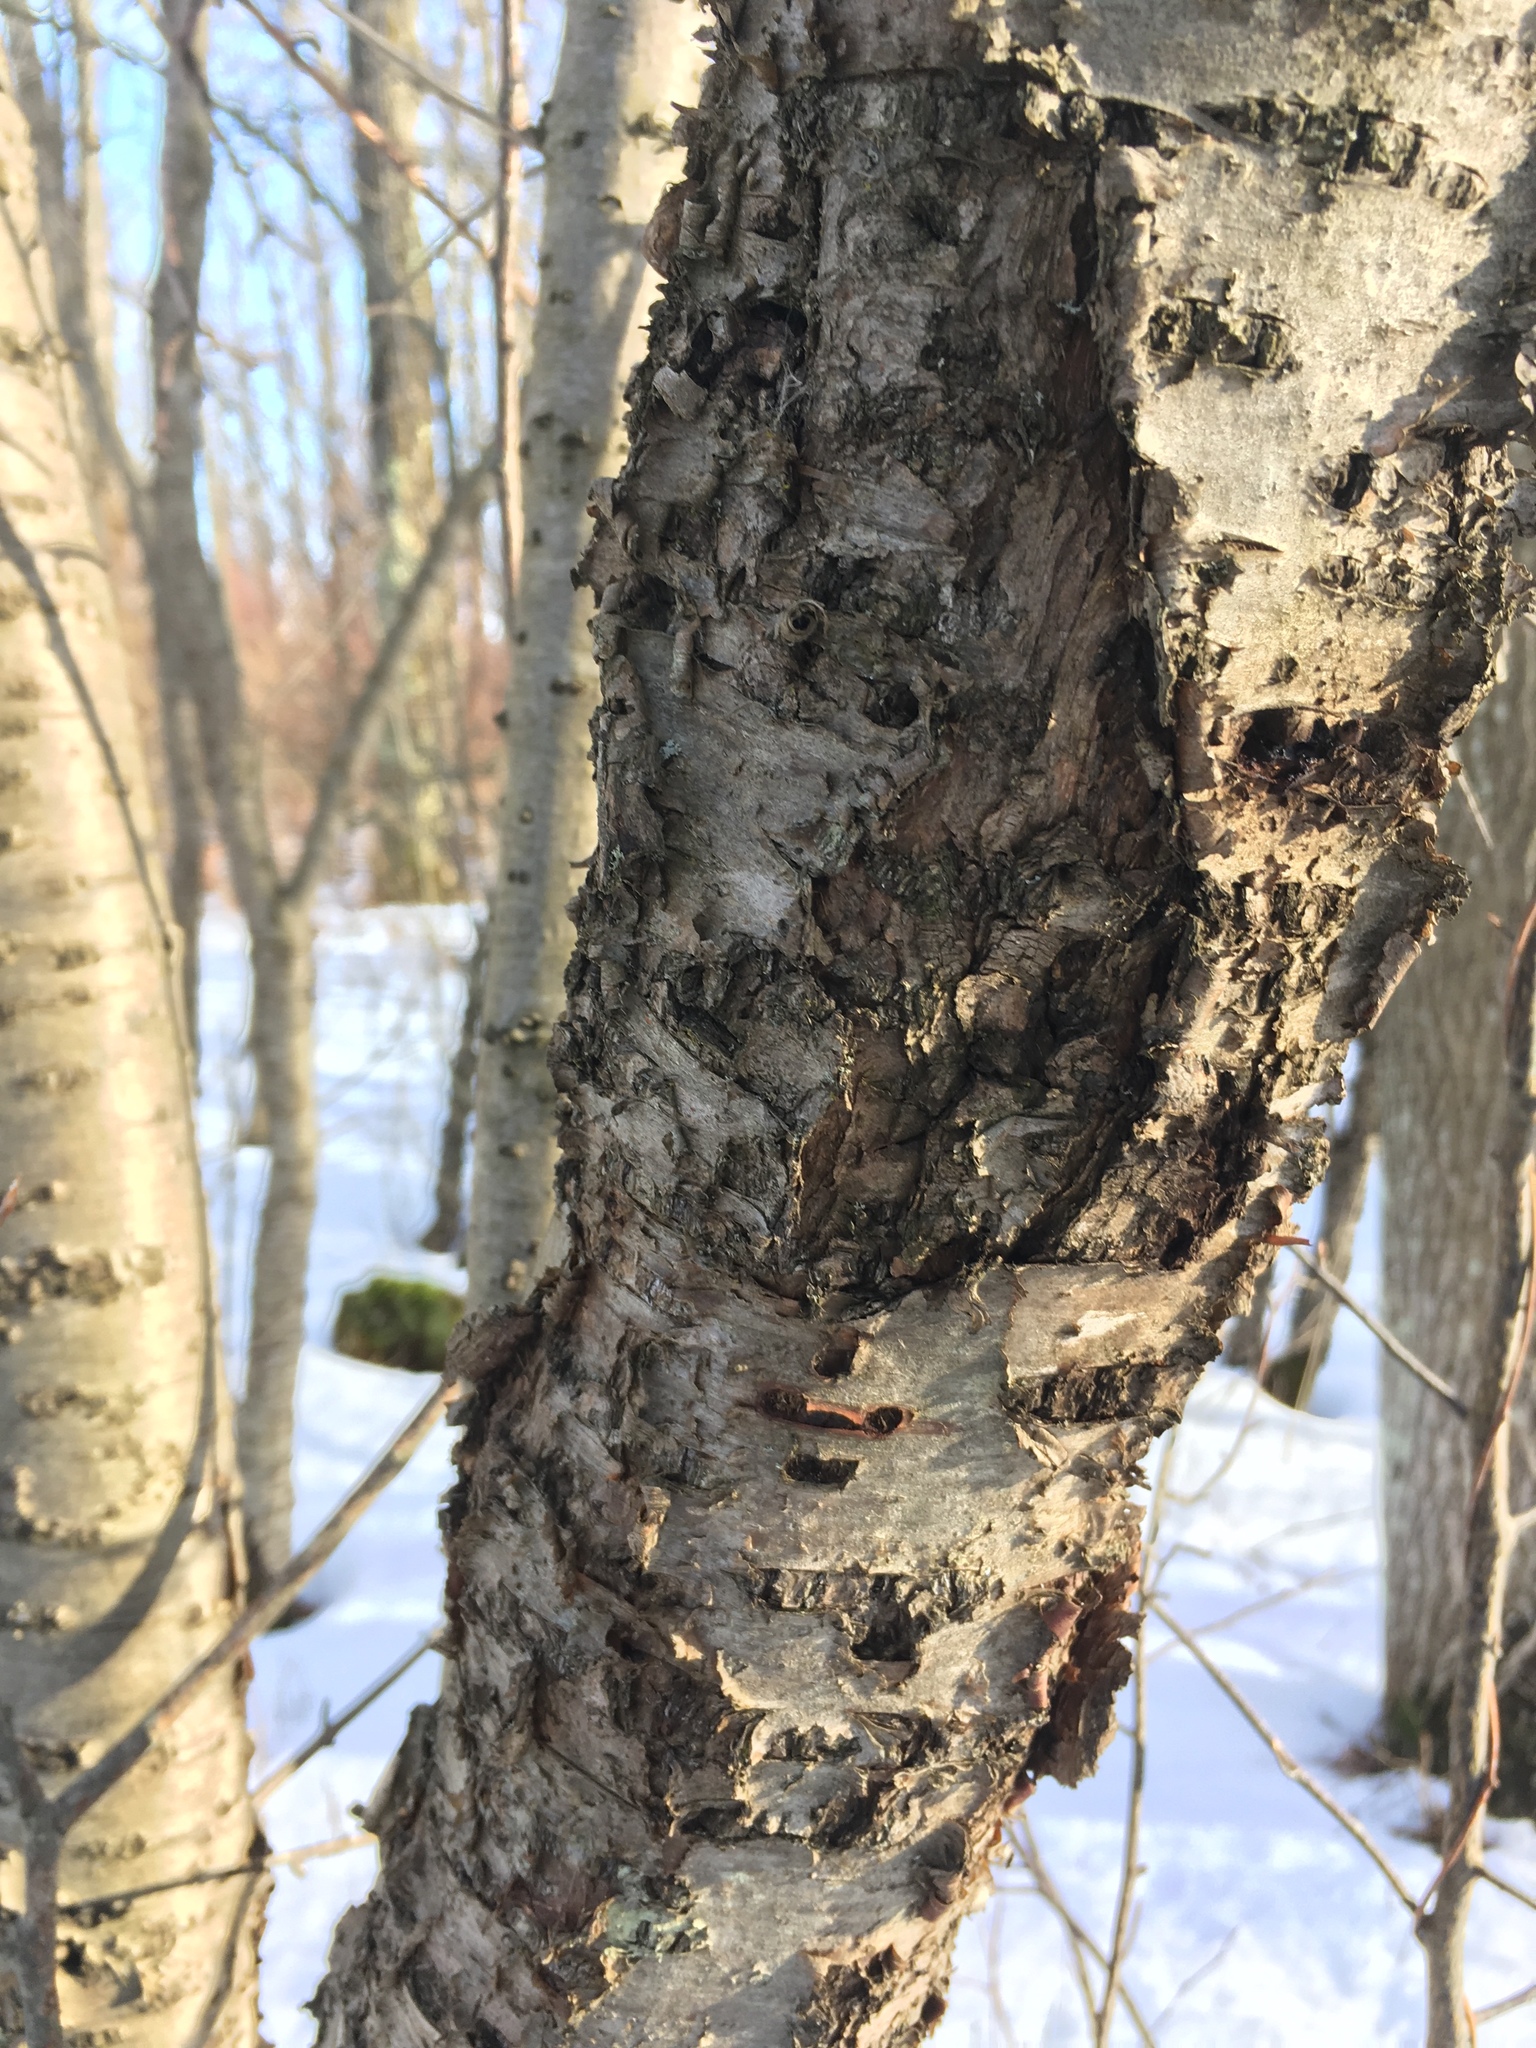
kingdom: Plantae
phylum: Tracheophyta
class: Magnoliopsida
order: Rosales
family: Rhamnaceae
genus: Rhamnus
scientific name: Rhamnus cathartica
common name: Common buckthorn
